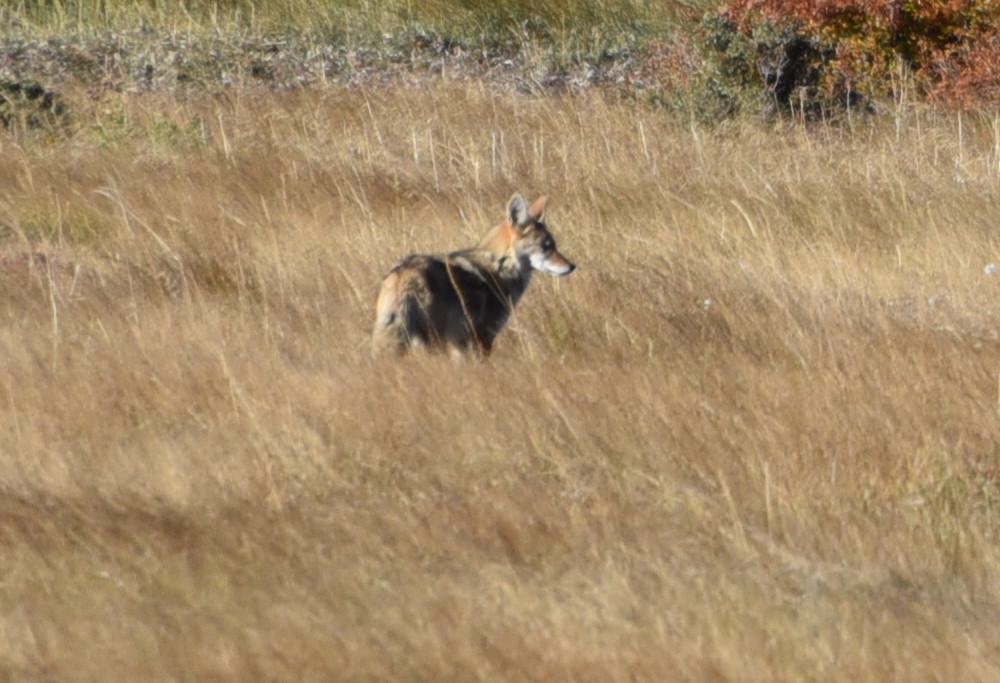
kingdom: Animalia
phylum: Chordata
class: Mammalia
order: Carnivora
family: Canidae
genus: Canis
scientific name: Canis latrans
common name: Coyote
